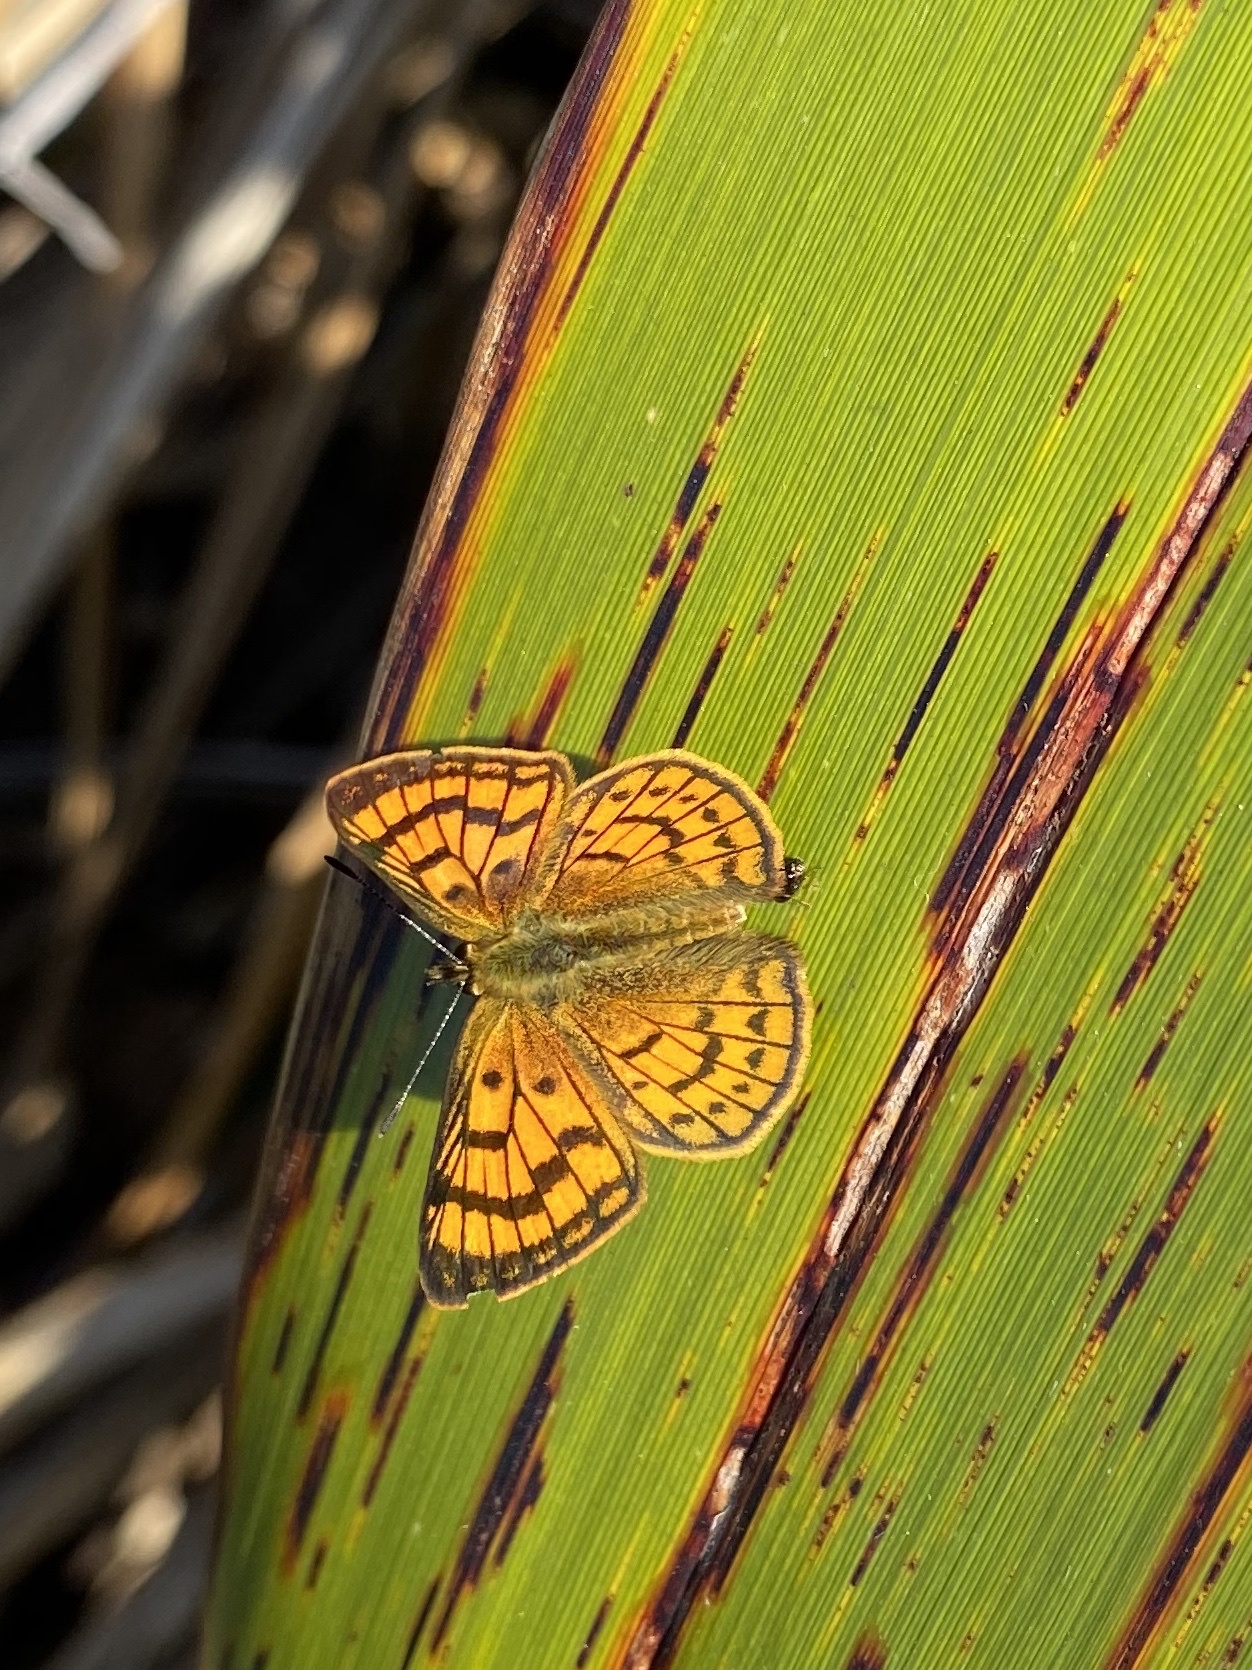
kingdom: Animalia
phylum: Arthropoda
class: Insecta
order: Lepidoptera
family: Lycaenidae
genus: Lycaena
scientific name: Lycaena salustius
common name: North island coastal copper
